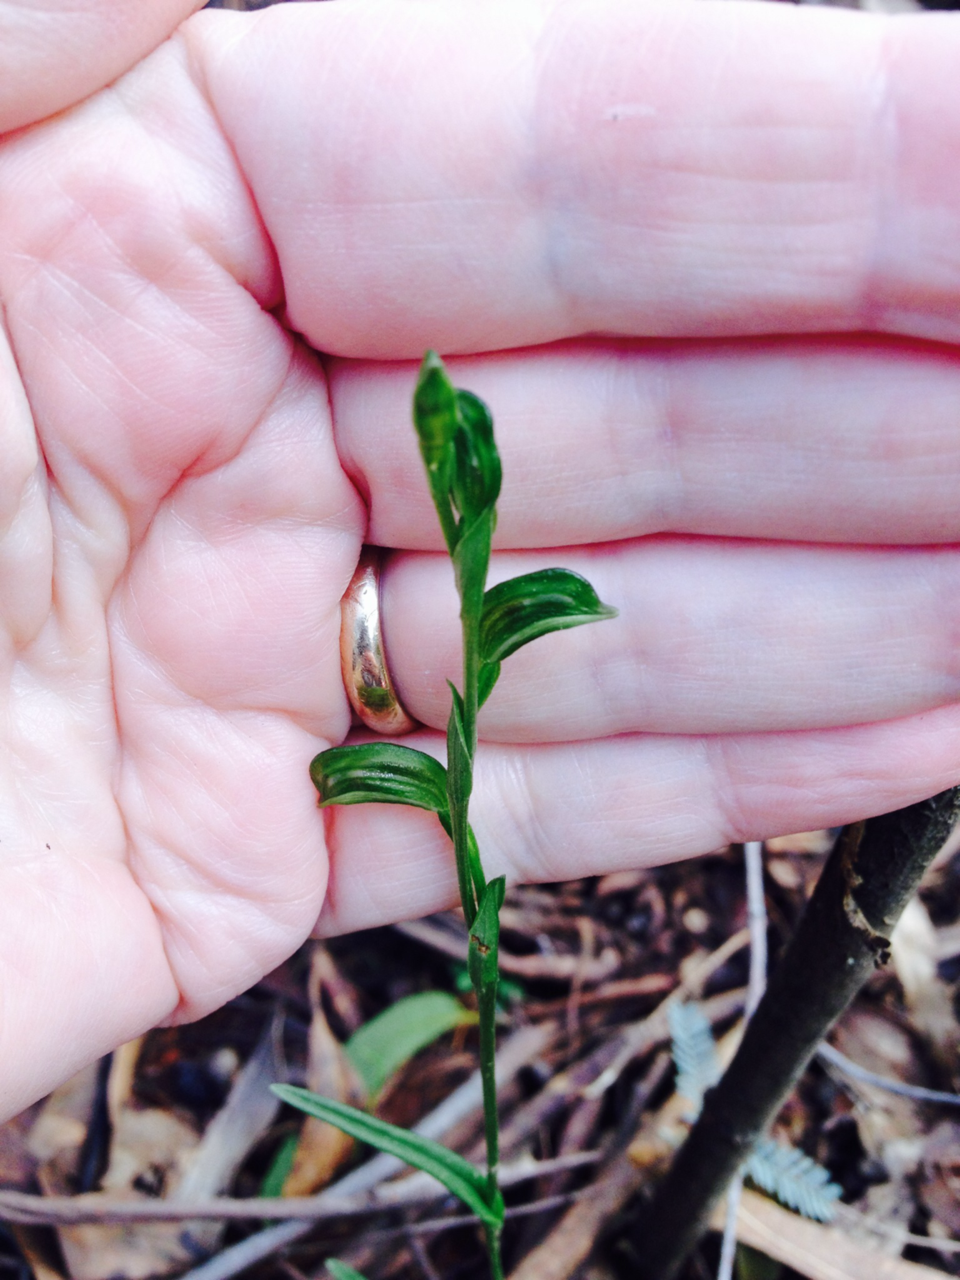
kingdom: Plantae
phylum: Tracheophyta
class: Liliopsida
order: Asparagales
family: Orchidaceae
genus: Pterostylis
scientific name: Pterostylis melagramma
